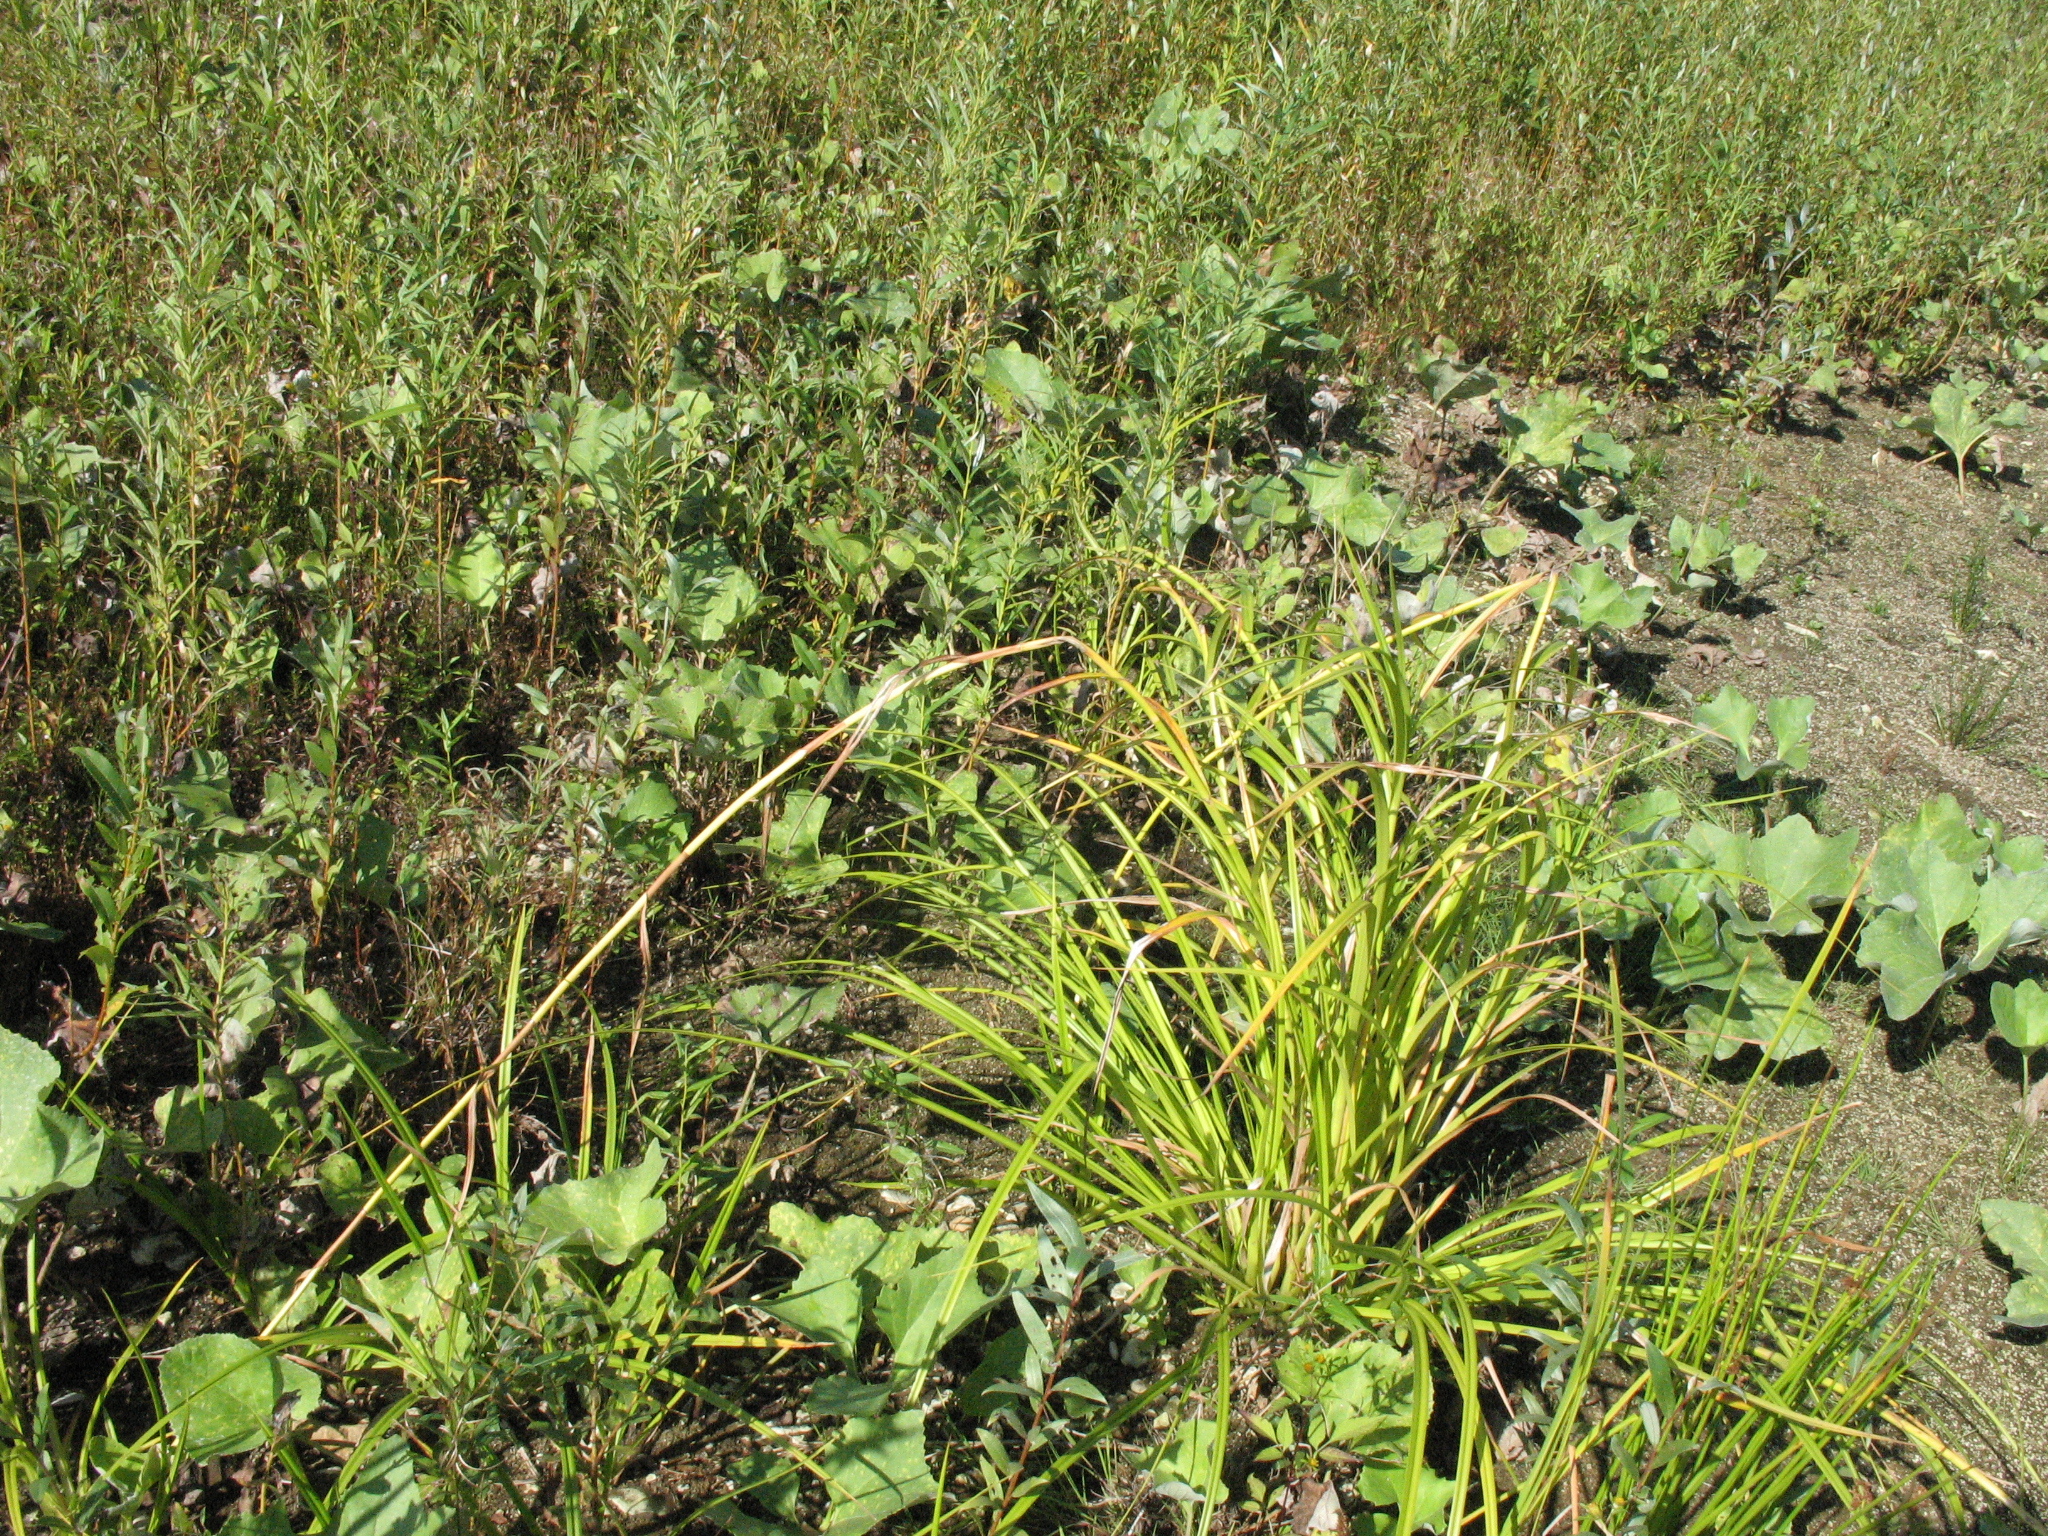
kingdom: Plantae
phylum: Tracheophyta
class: Liliopsida
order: Poales
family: Cyperaceae
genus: Scirpus
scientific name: Scirpus radicans
